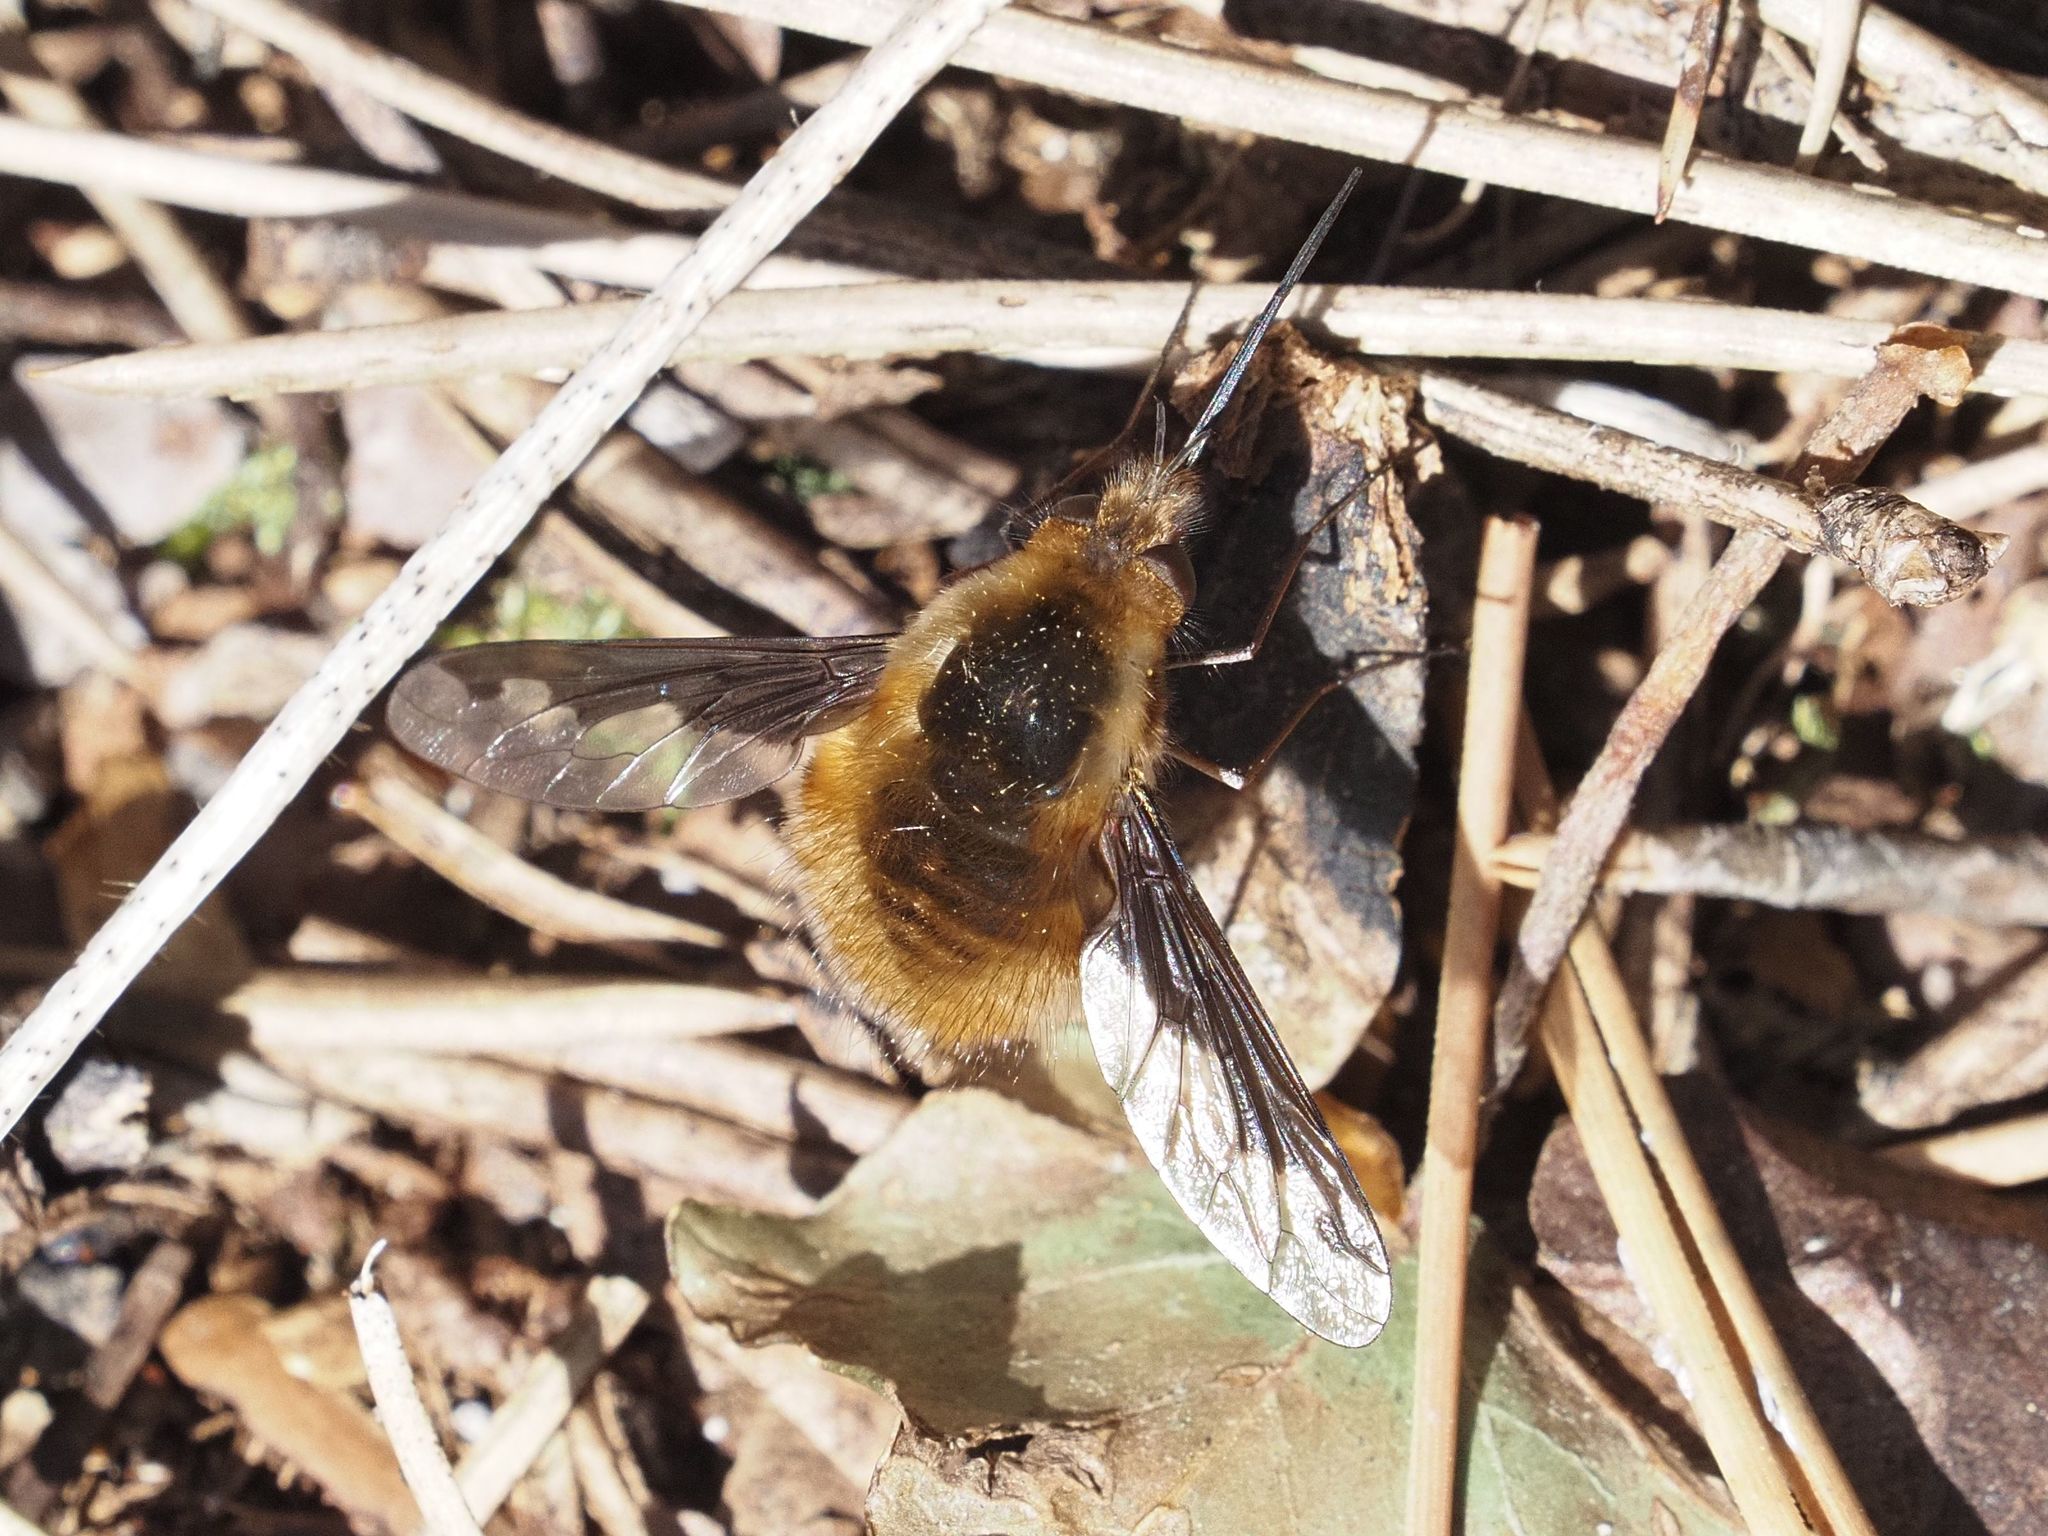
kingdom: Animalia
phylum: Arthropoda
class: Insecta
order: Diptera
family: Bombyliidae
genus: Bombylius
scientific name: Bombylius major
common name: Bee fly
